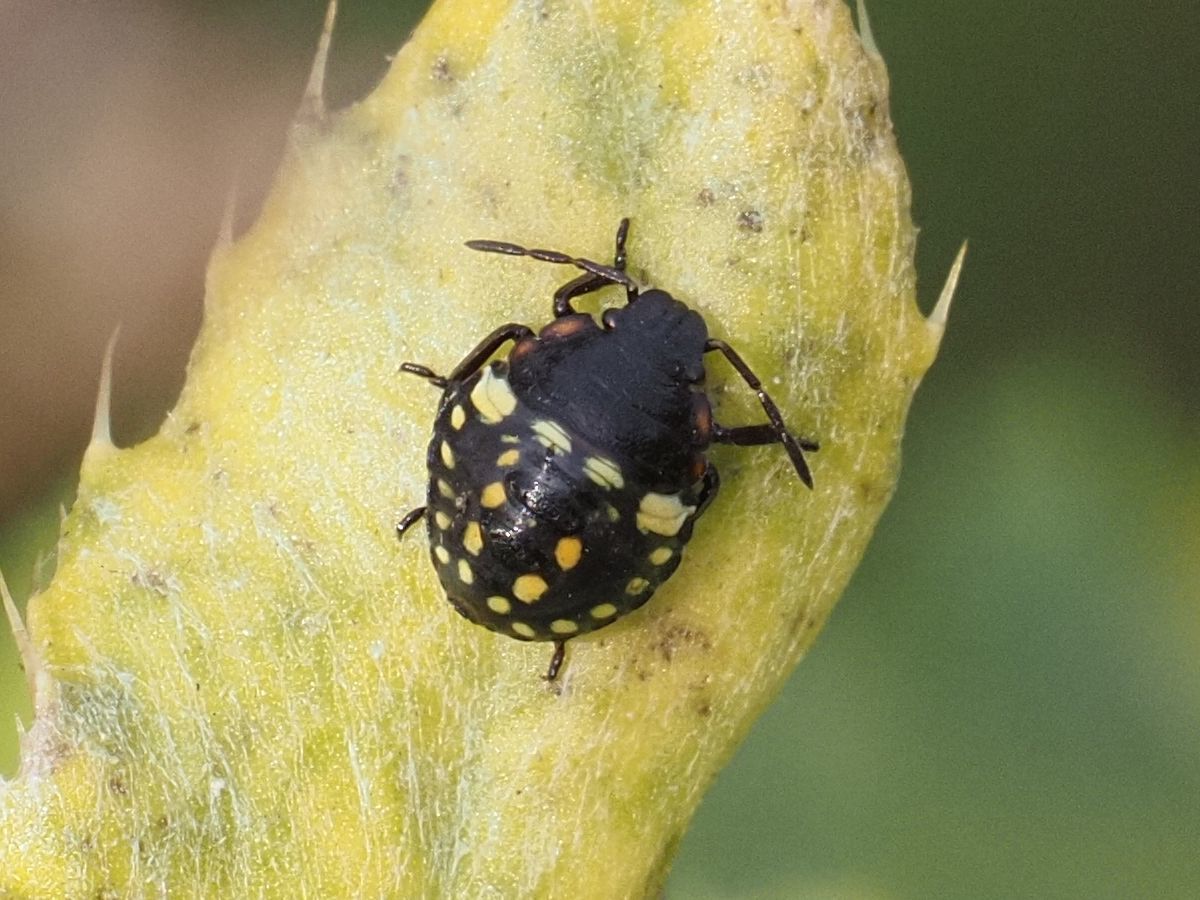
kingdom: Animalia
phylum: Arthropoda
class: Insecta
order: Hemiptera
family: Pentatomidae
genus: Nezara
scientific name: Nezara viridula
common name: Southern green stink bug
